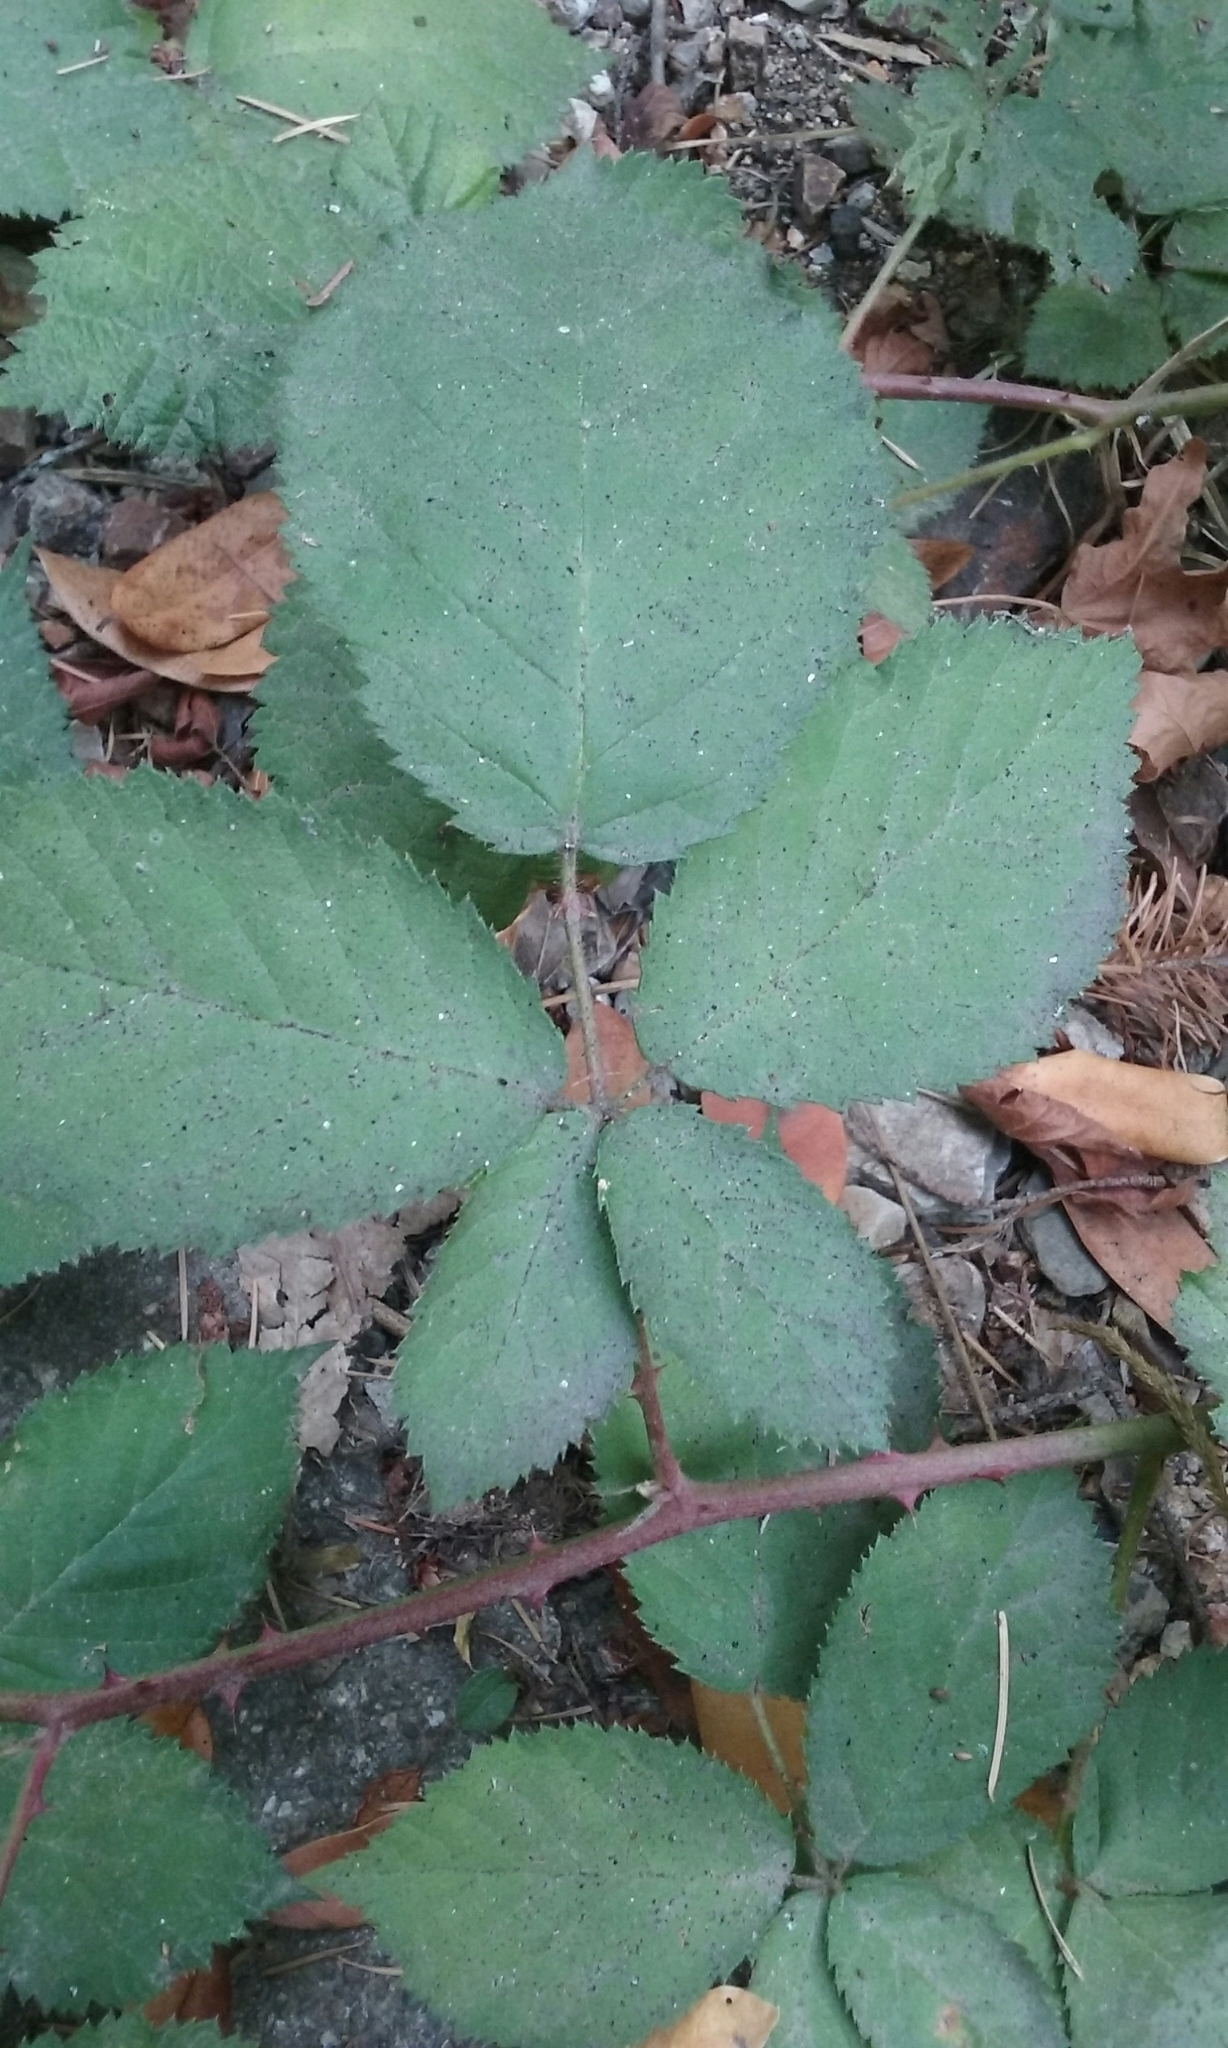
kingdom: Plantae
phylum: Tracheophyta
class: Magnoliopsida
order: Rosales
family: Rosaceae
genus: Rubus
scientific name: Rubus armeniacus
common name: Himalayan blackberry
